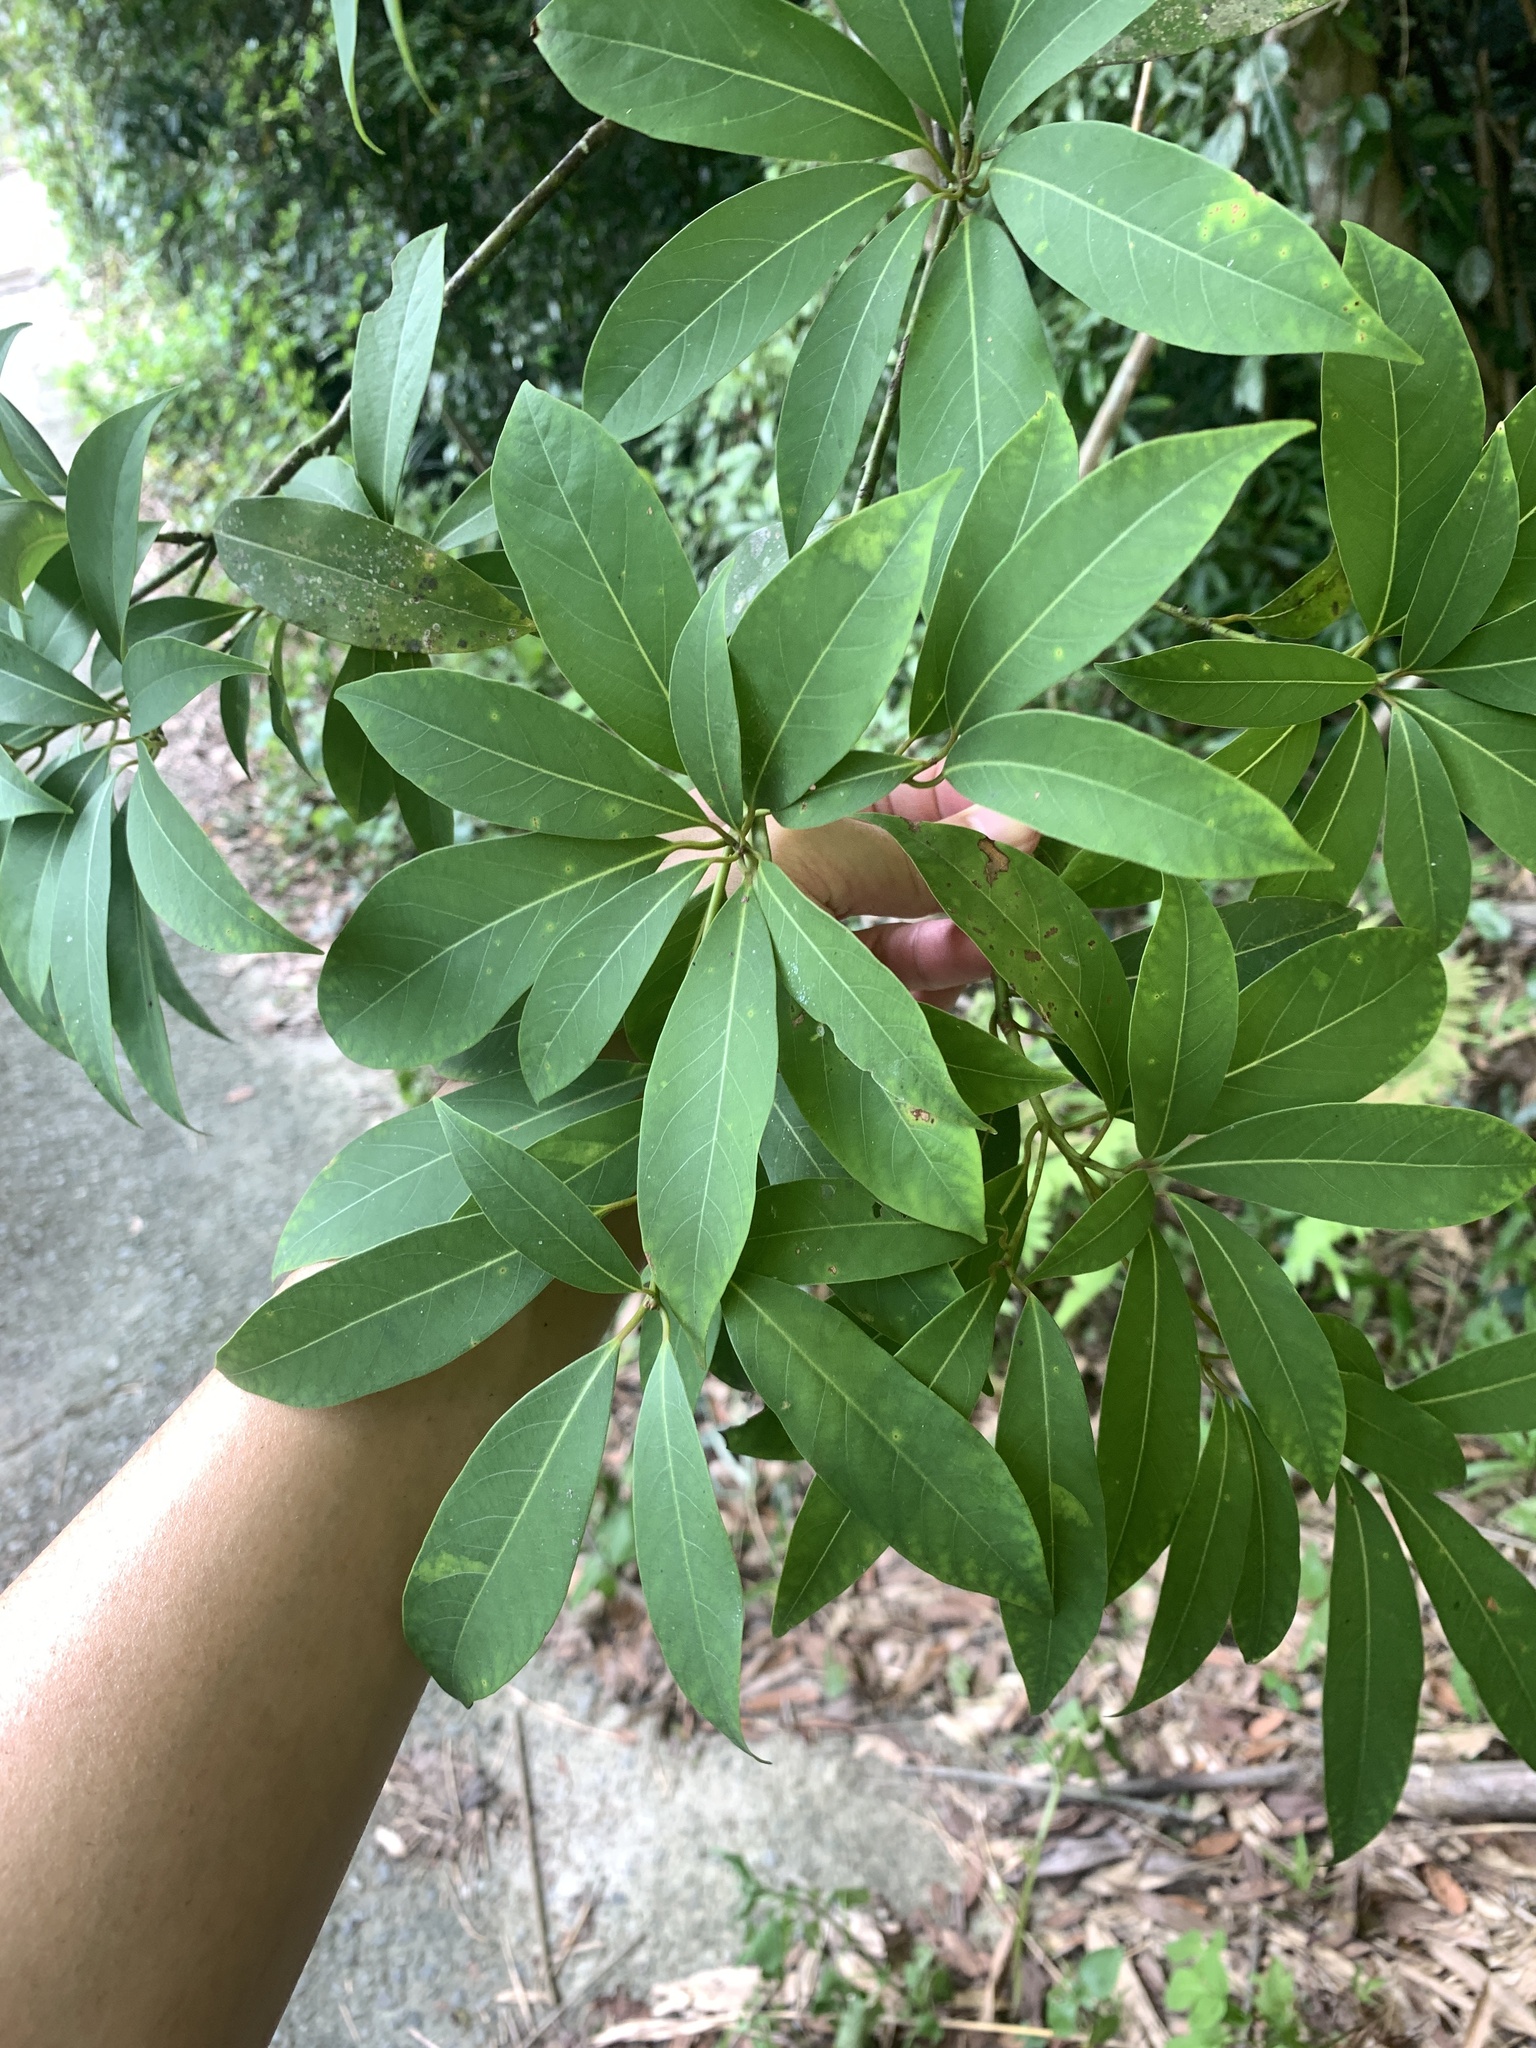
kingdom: Plantae
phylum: Tracheophyta
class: Magnoliopsida
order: Laurales
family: Lauraceae
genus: Machilus
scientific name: Machilus zuihoensis
